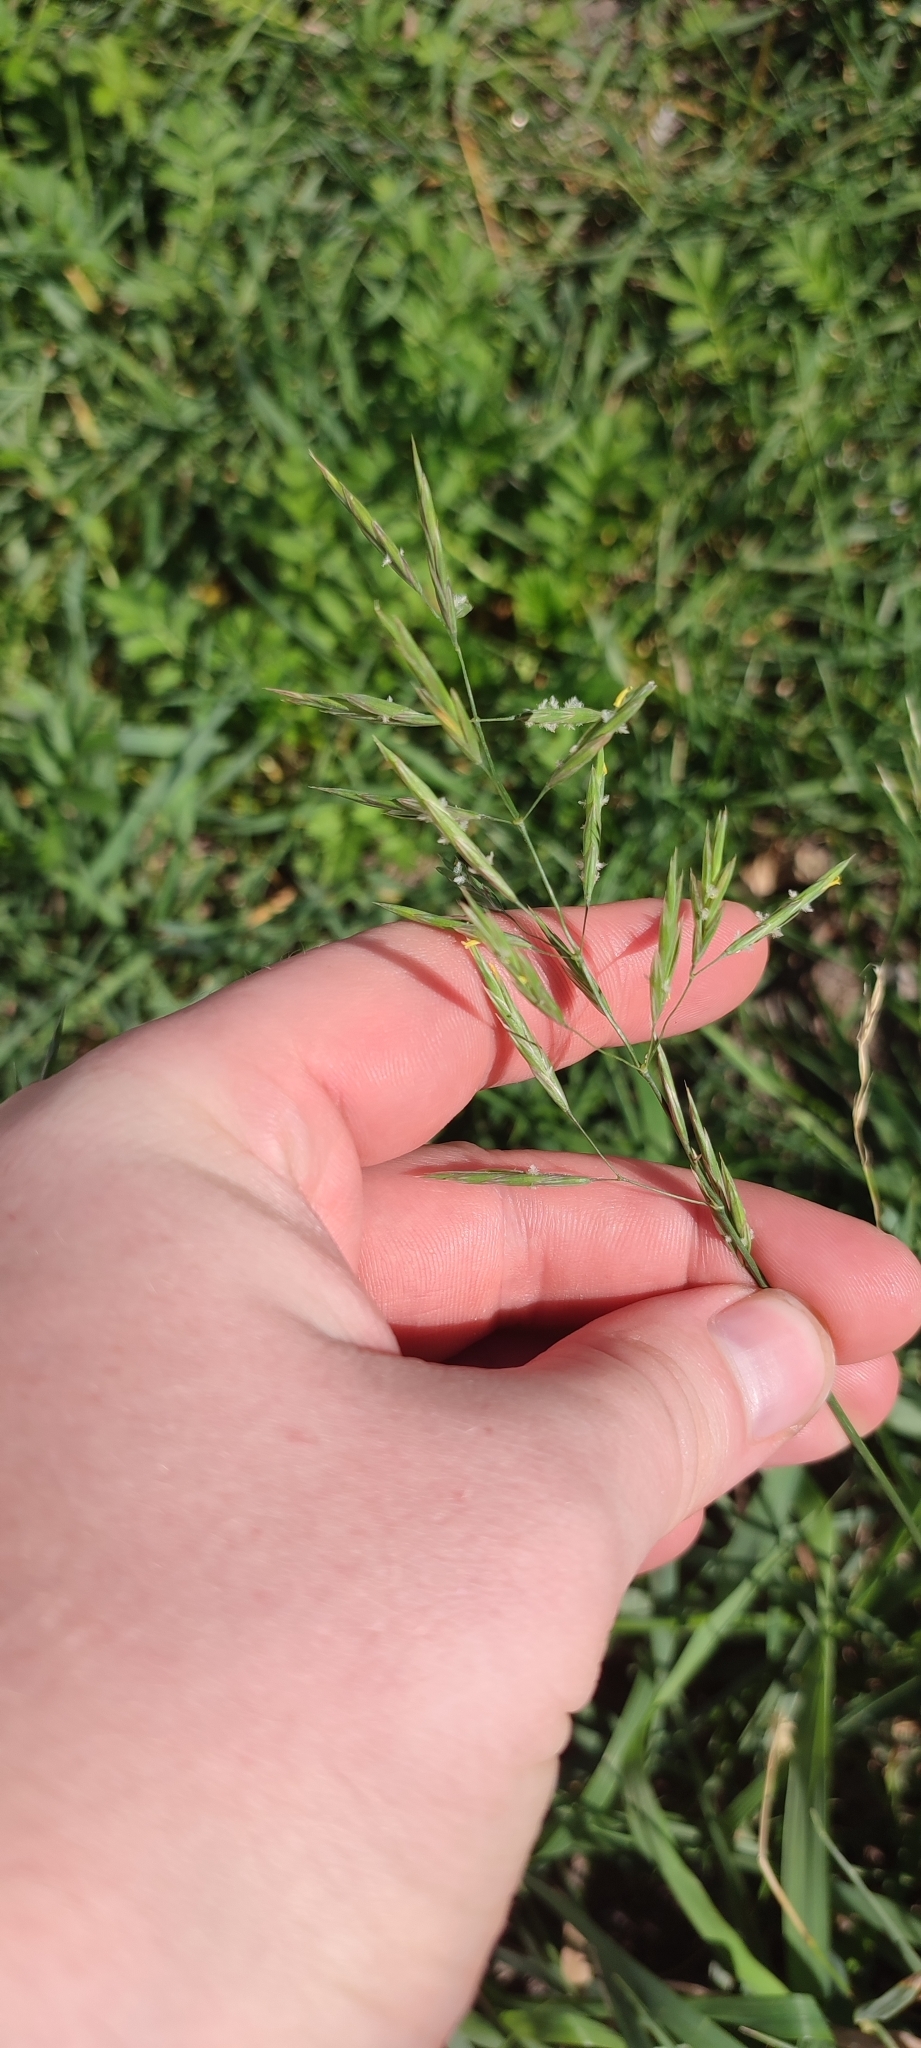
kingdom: Plantae
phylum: Tracheophyta
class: Liliopsida
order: Poales
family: Poaceae
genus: Bromus
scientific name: Bromus inermis
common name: Smooth brome
